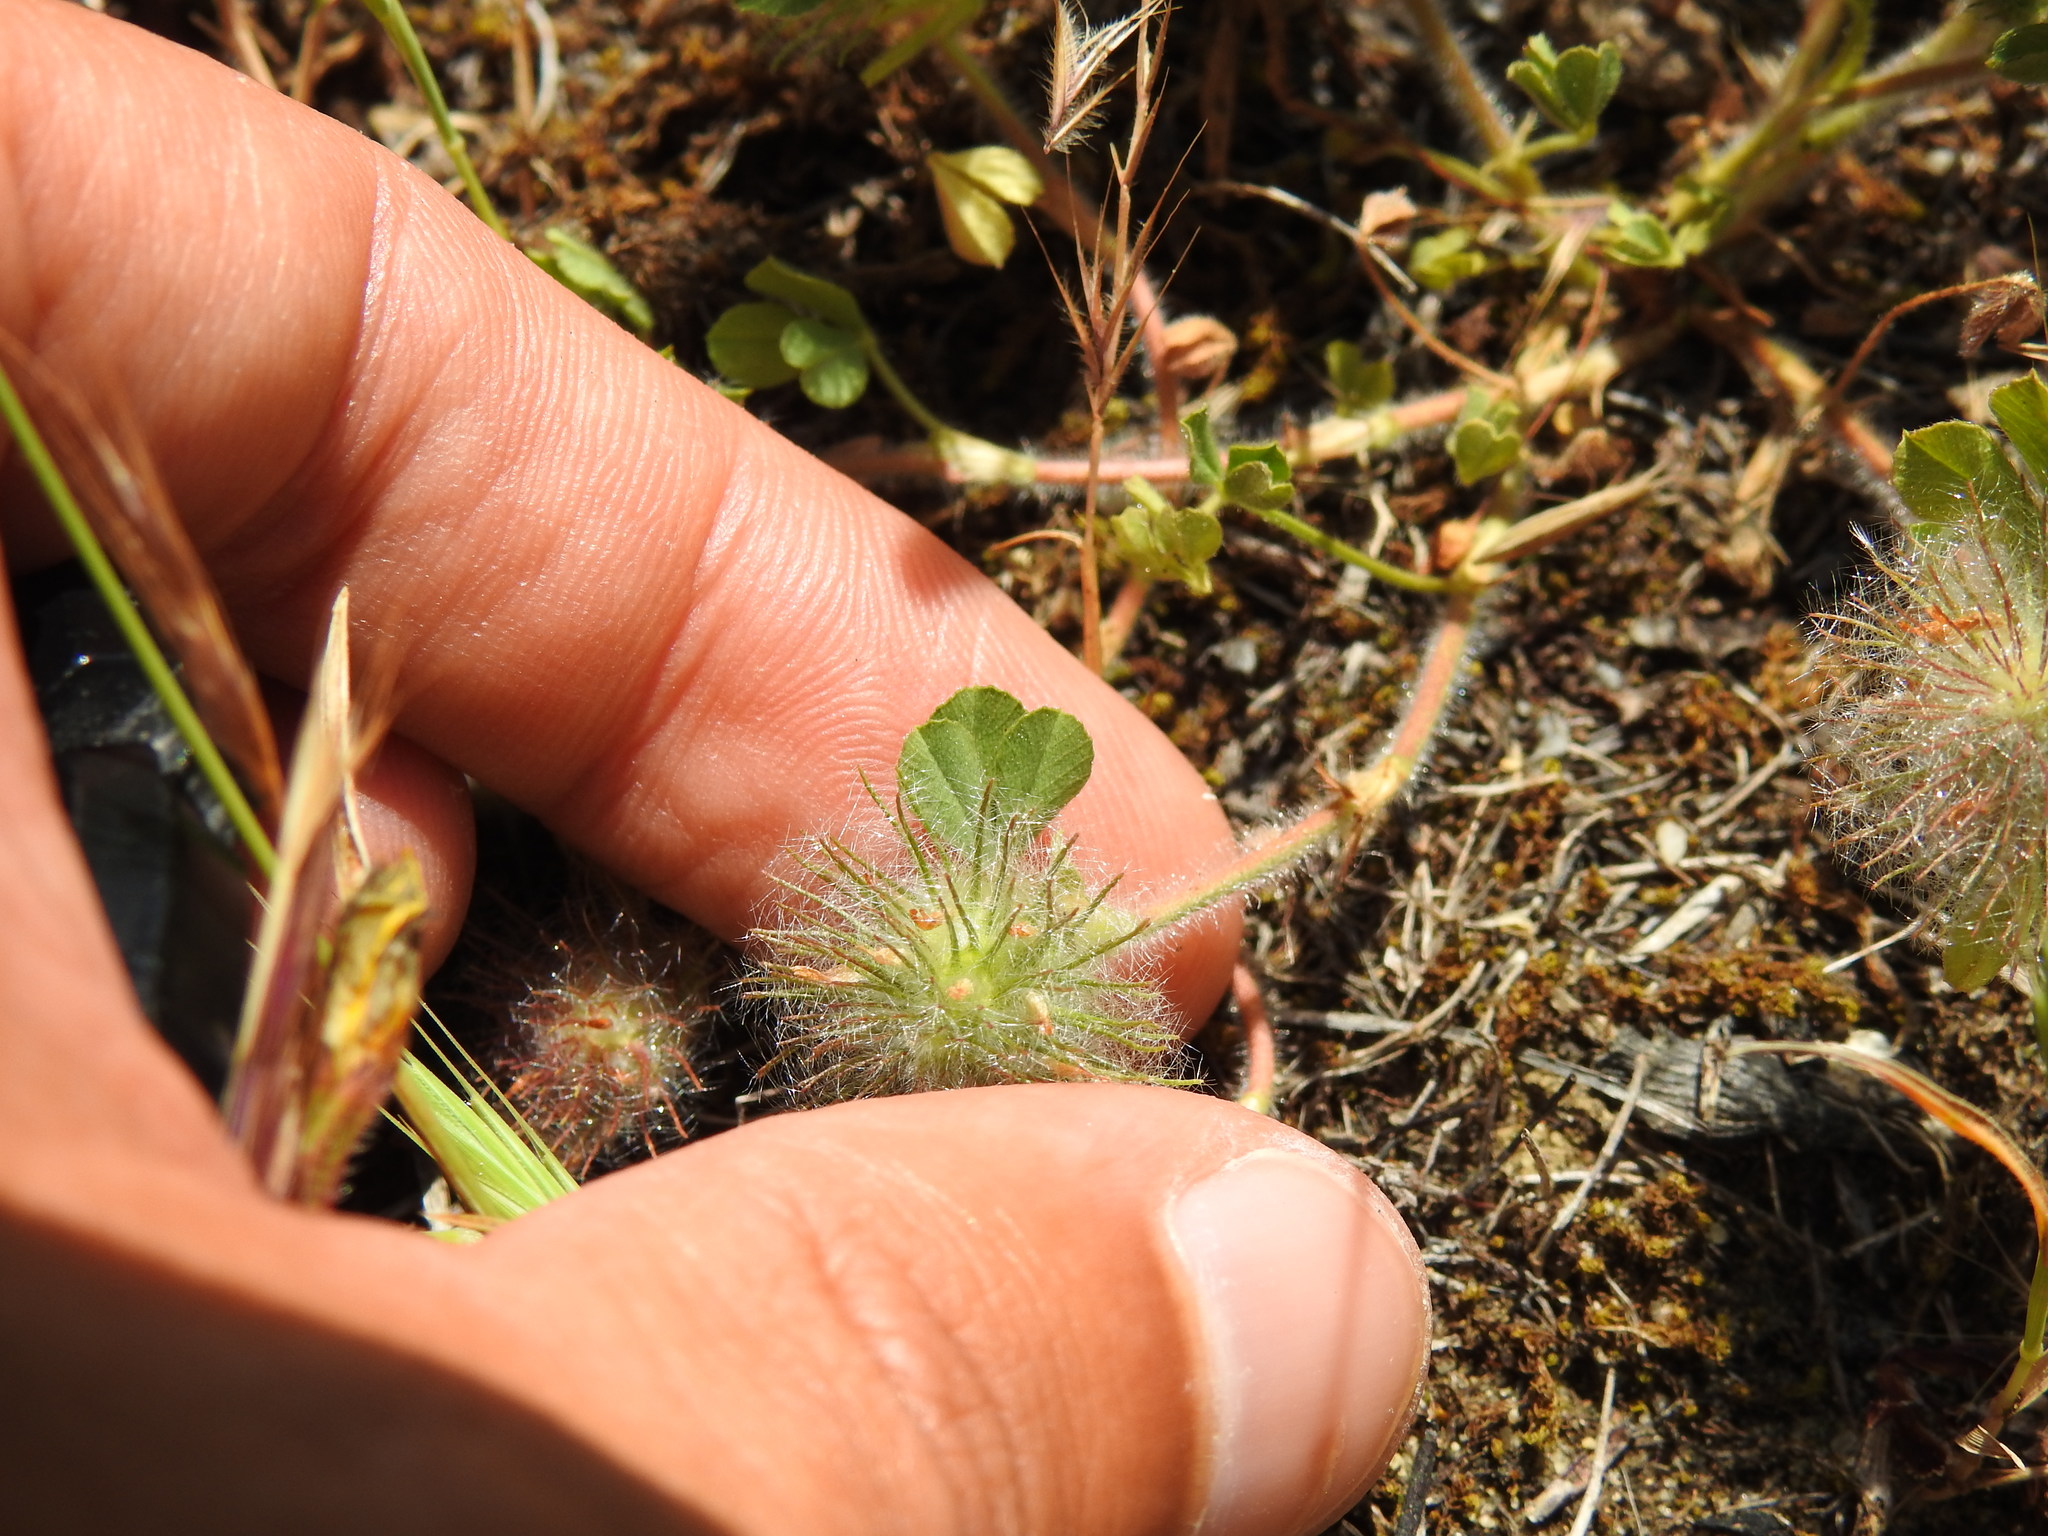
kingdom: Plantae
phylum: Tracheophyta
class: Magnoliopsida
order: Fabales
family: Fabaceae
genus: Trifolium
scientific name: Trifolium cherleri
